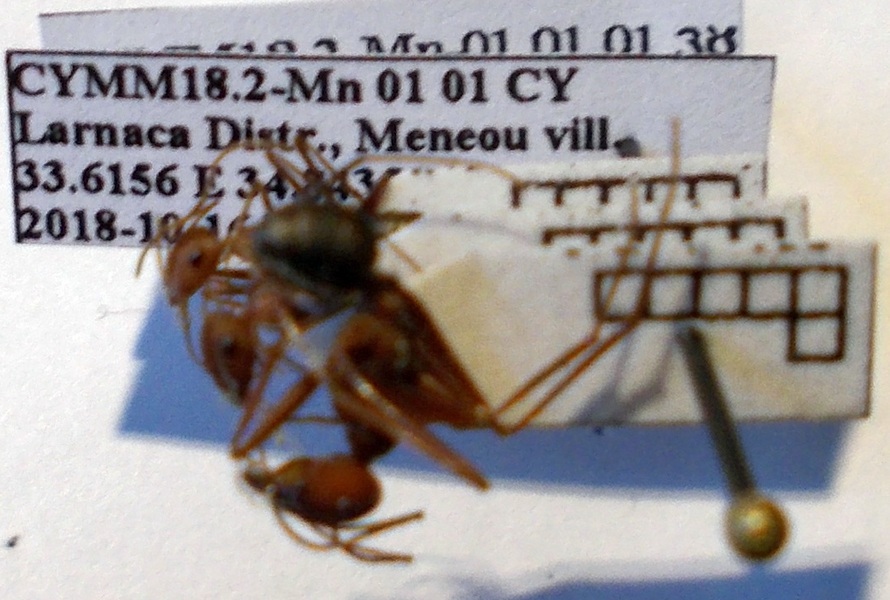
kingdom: Animalia
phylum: Arthropoda
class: Insecta
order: Hymenoptera
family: Formicidae
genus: Cataglyphis
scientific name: Cataglyphis aphrodite
